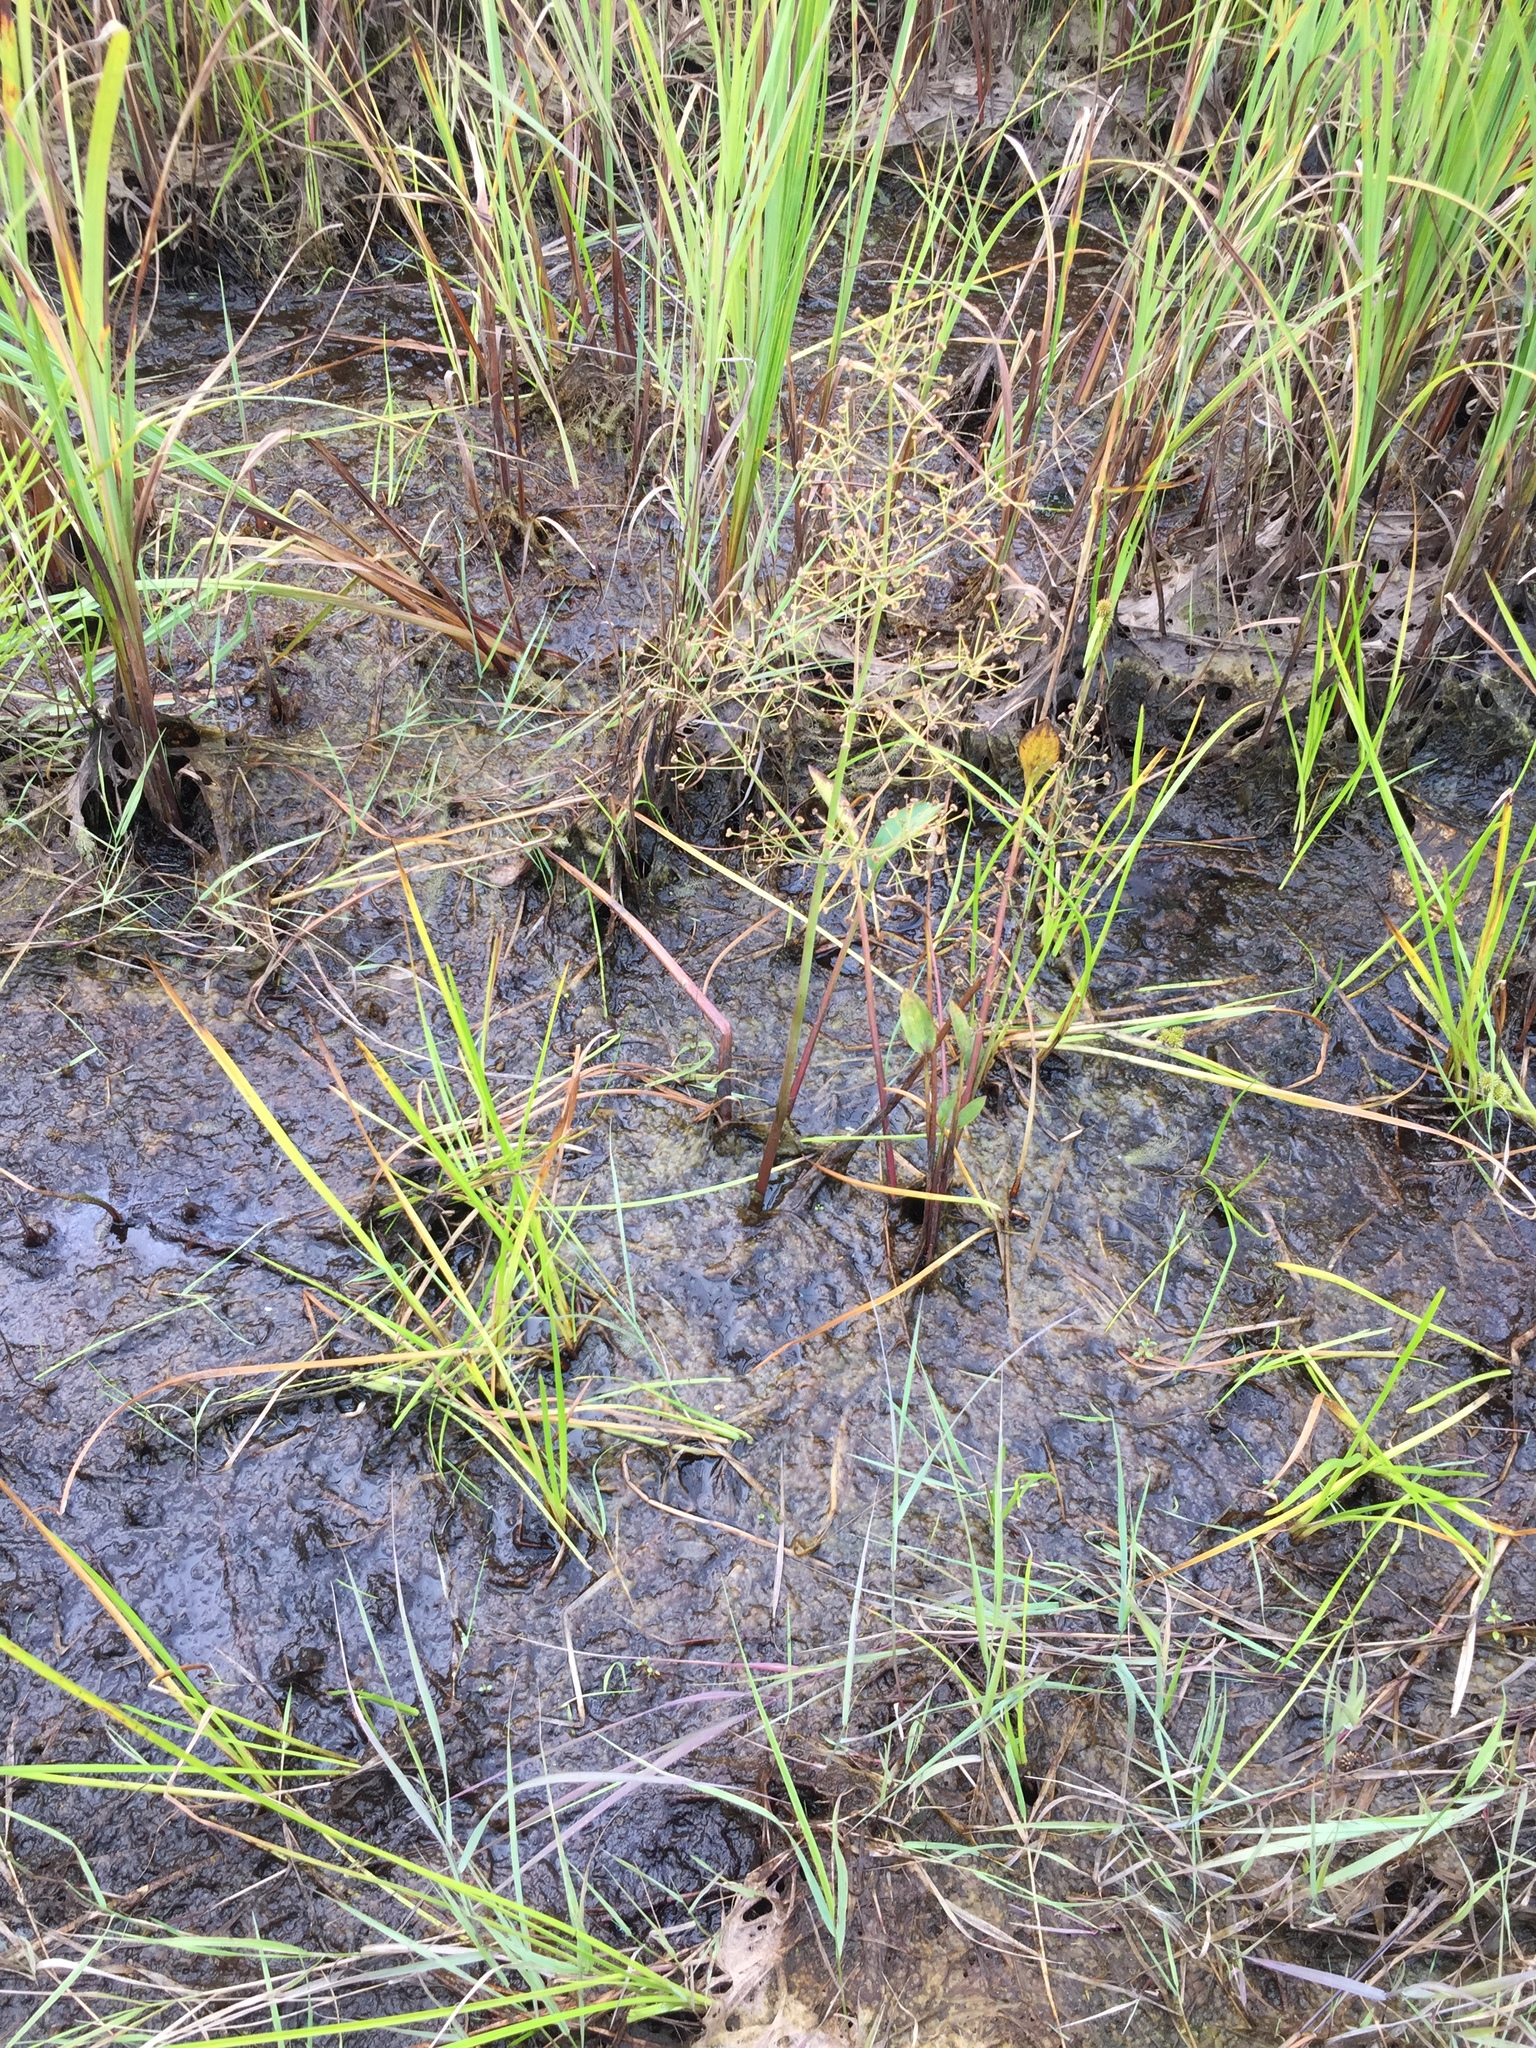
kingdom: Plantae
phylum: Tracheophyta
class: Liliopsida
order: Alismatales
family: Alismataceae
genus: Alisma
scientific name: Alisma triviale
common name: Northern water-plantain
